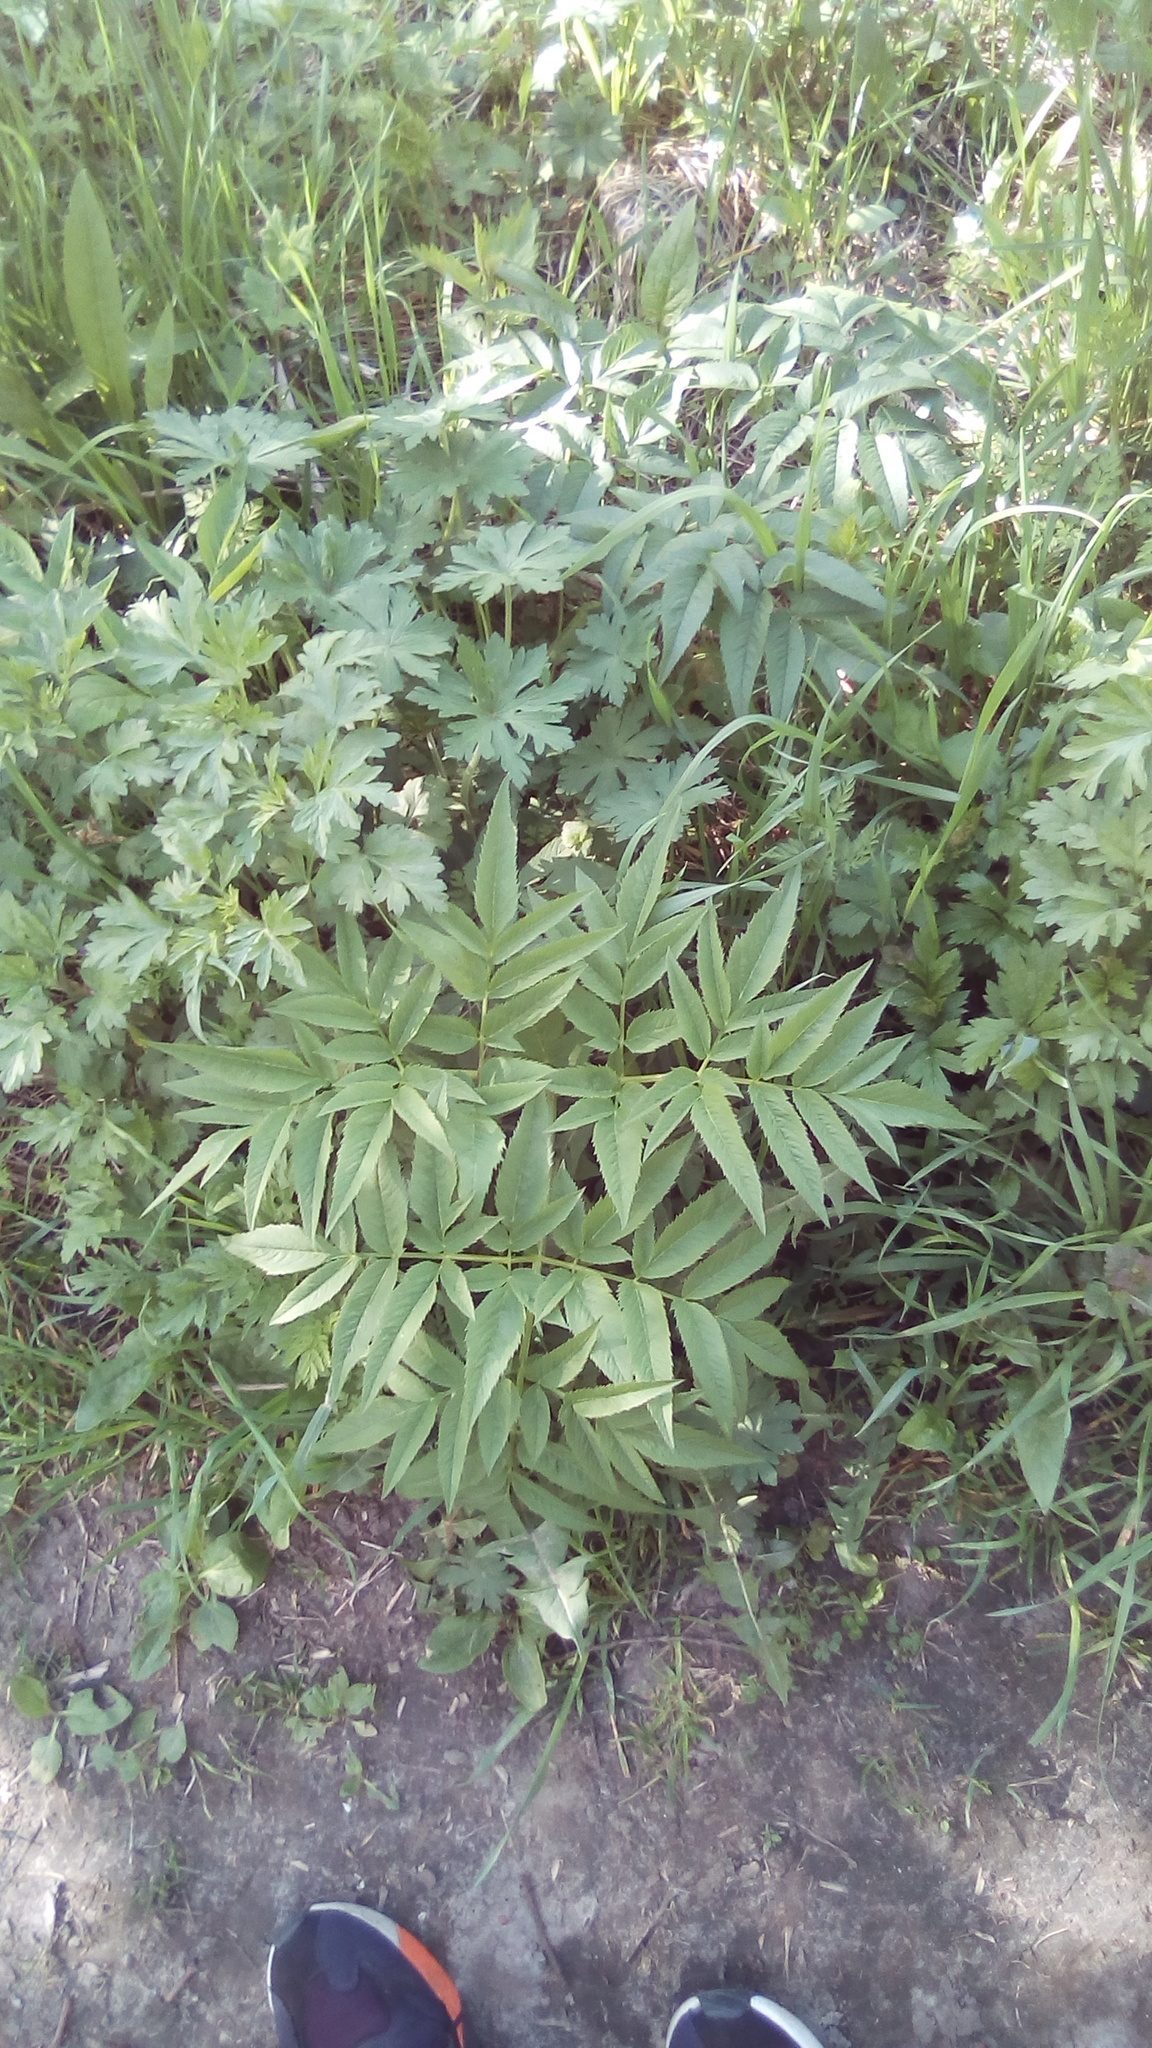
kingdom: Plantae
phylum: Tracheophyta
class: Magnoliopsida
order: Apiales
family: Apiaceae
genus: Angelica
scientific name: Angelica sylvestris
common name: Wild angelica
